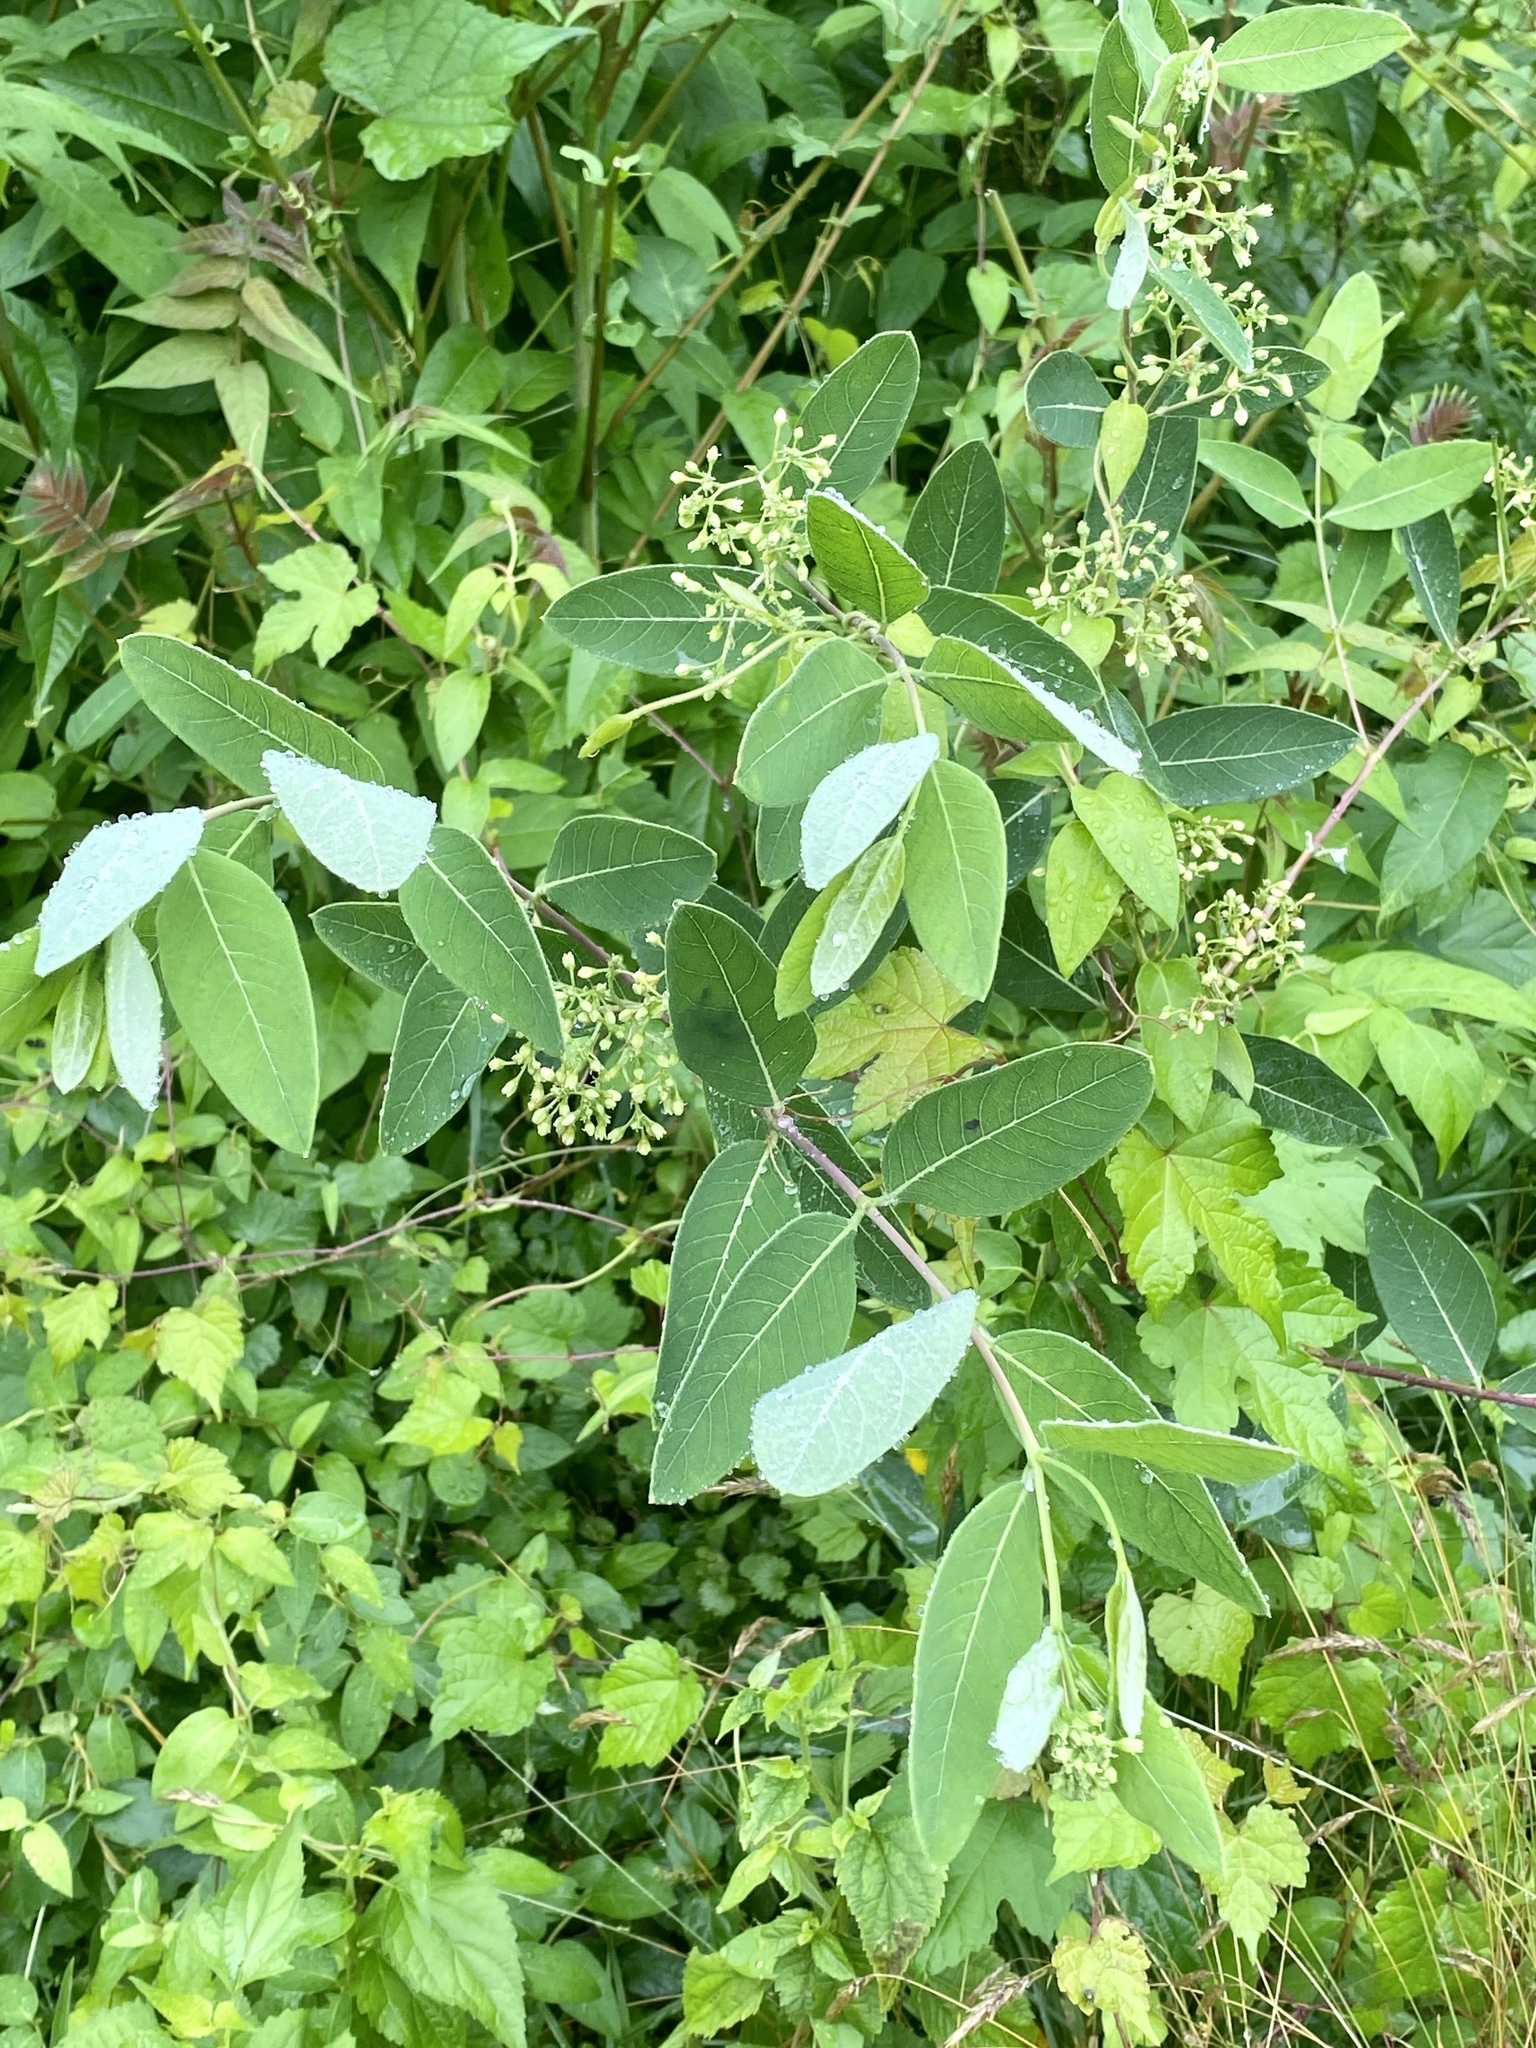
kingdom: Plantae
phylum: Tracheophyta
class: Magnoliopsida
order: Gentianales
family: Apocynaceae
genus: Apocynum
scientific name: Apocynum cannabinum
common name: Hemp dogbane
